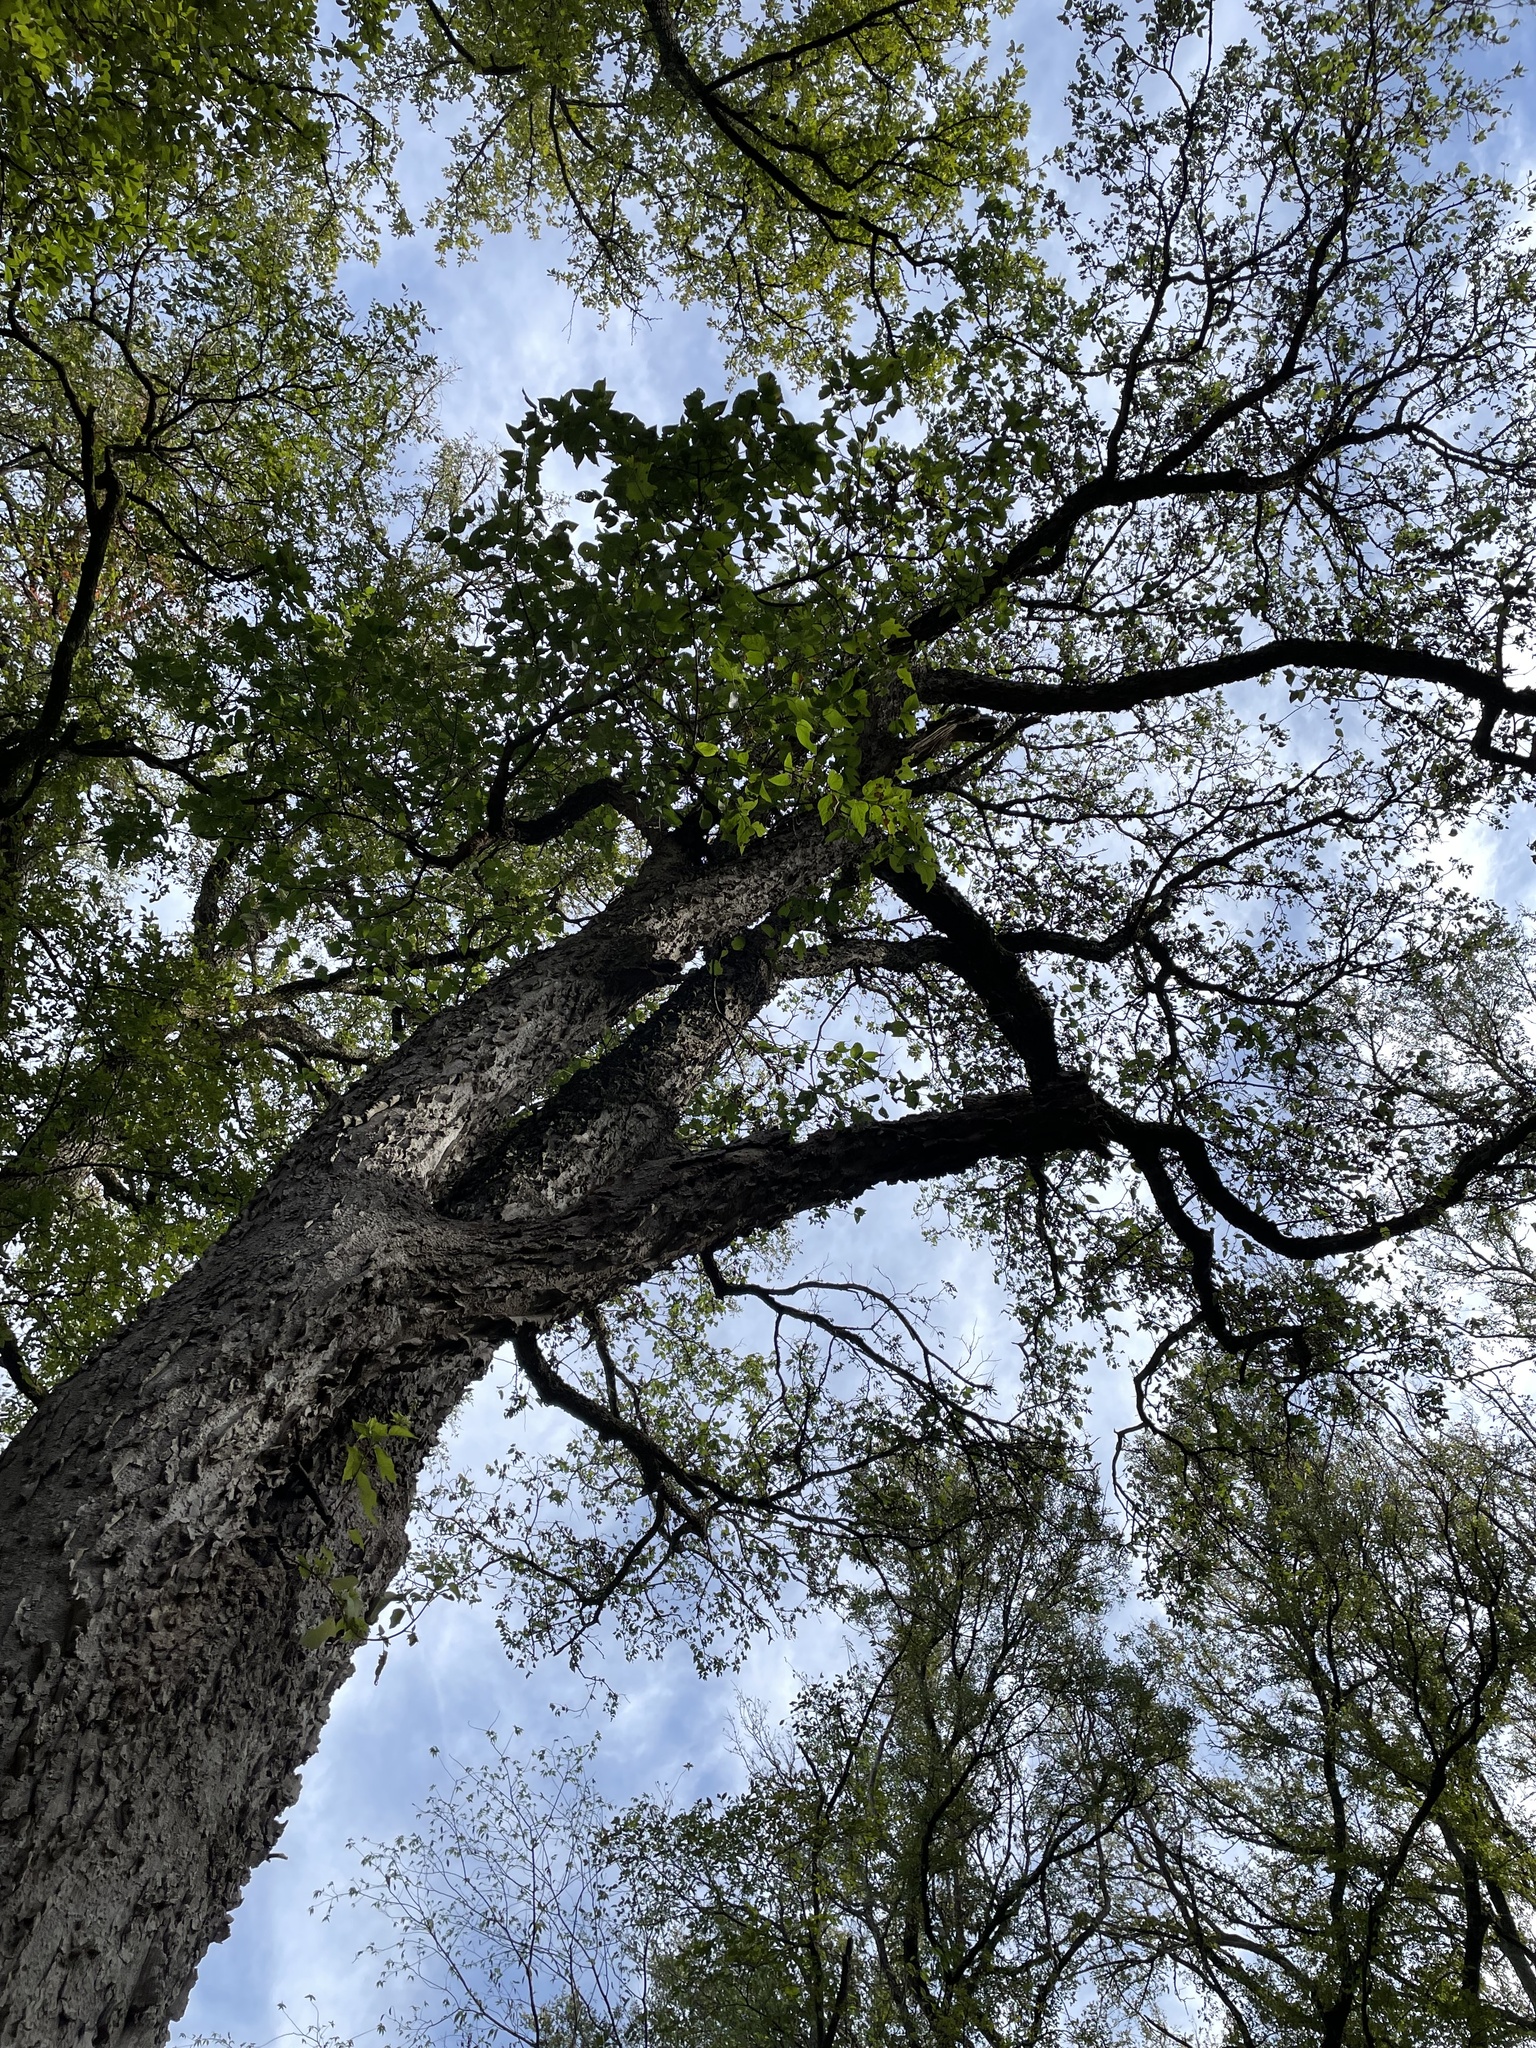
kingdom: Plantae
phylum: Tracheophyta
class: Magnoliopsida
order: Rosales
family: Cannabaceae
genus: Celtis
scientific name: Celtis laevigata
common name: Sugarberry
